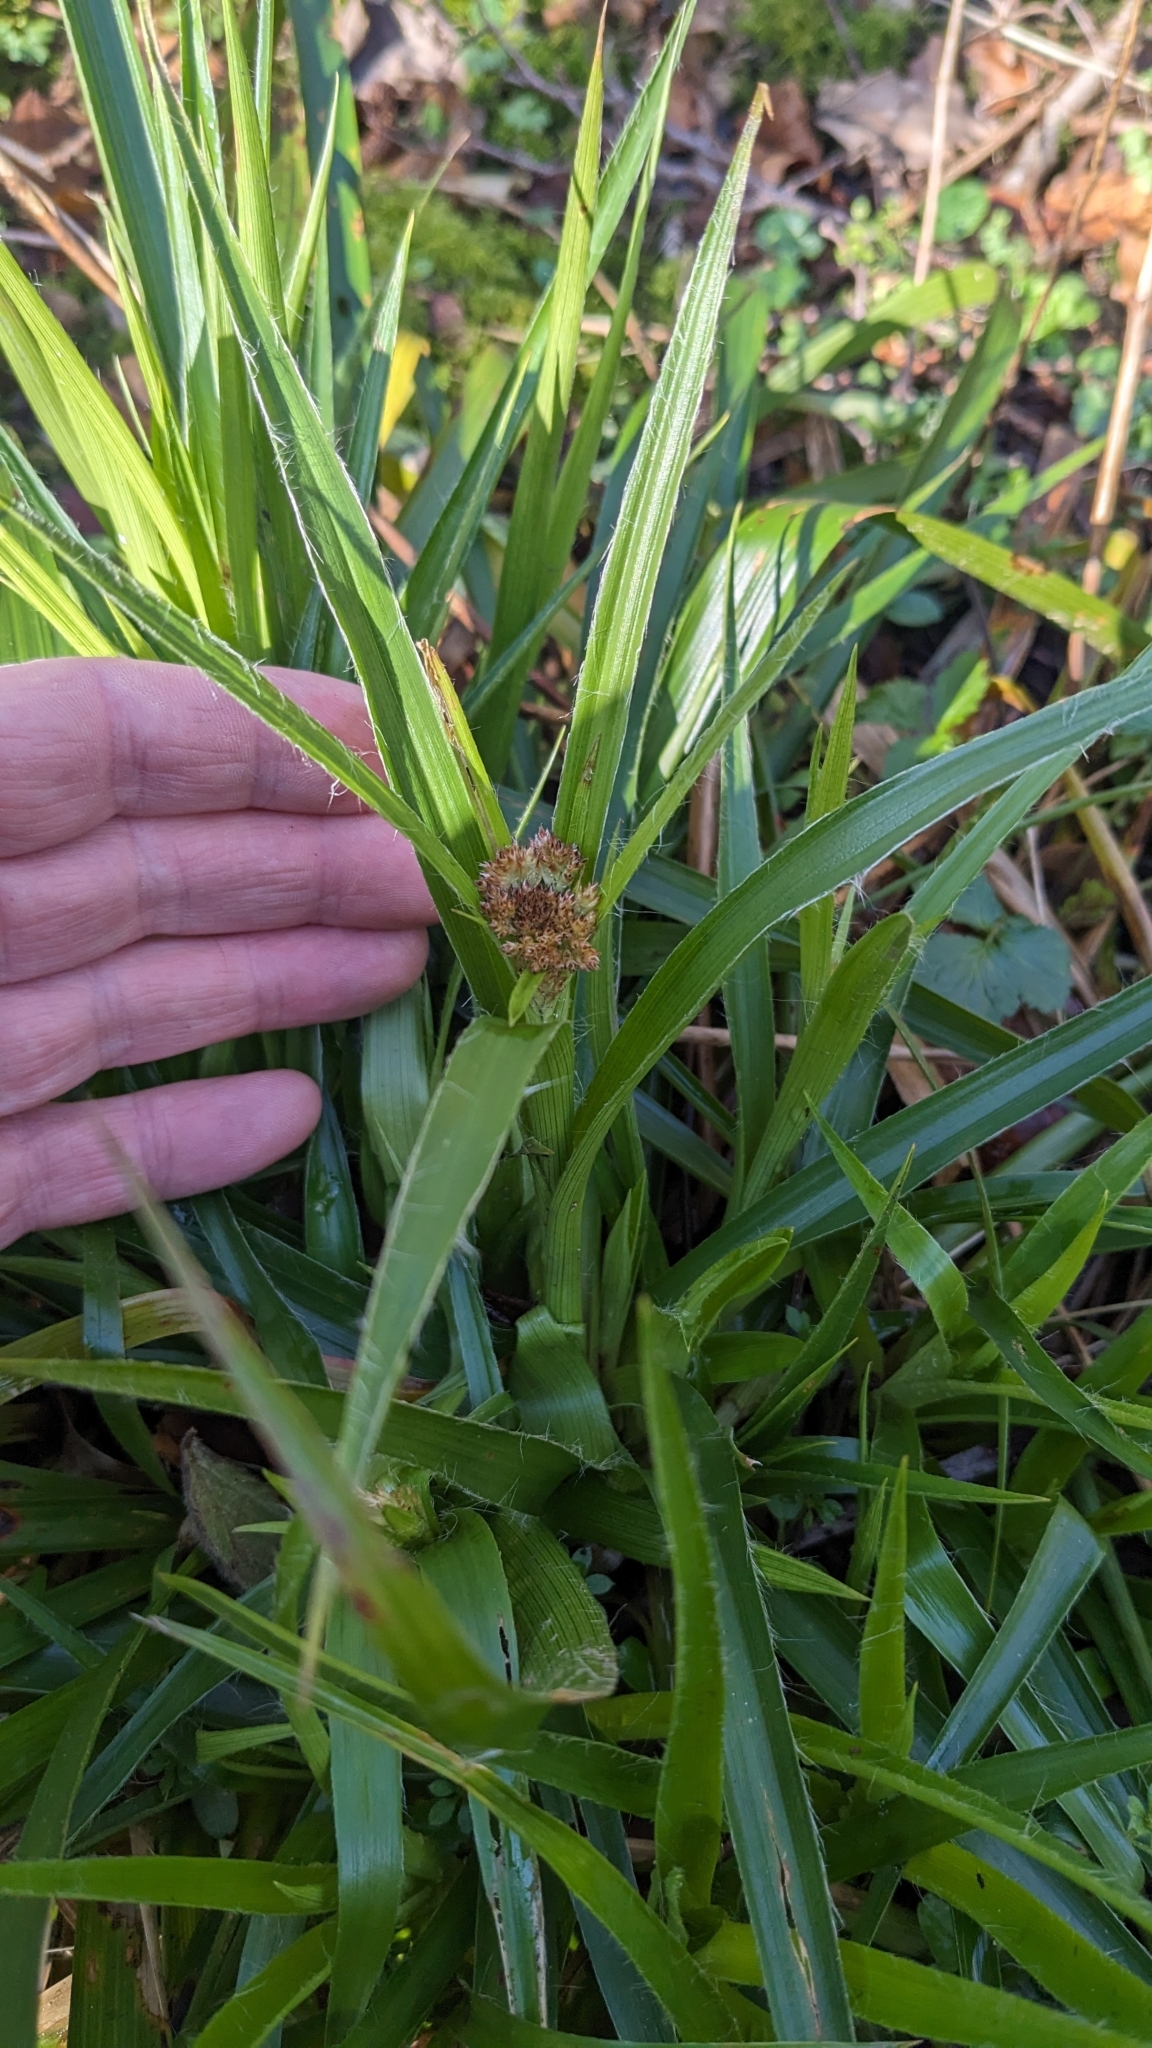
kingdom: Plantae
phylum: Tracheophyta
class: Liliopsida
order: Poales
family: Juncaceae
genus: Luzula
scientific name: Luzula sylvatica
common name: Great wood-rush
